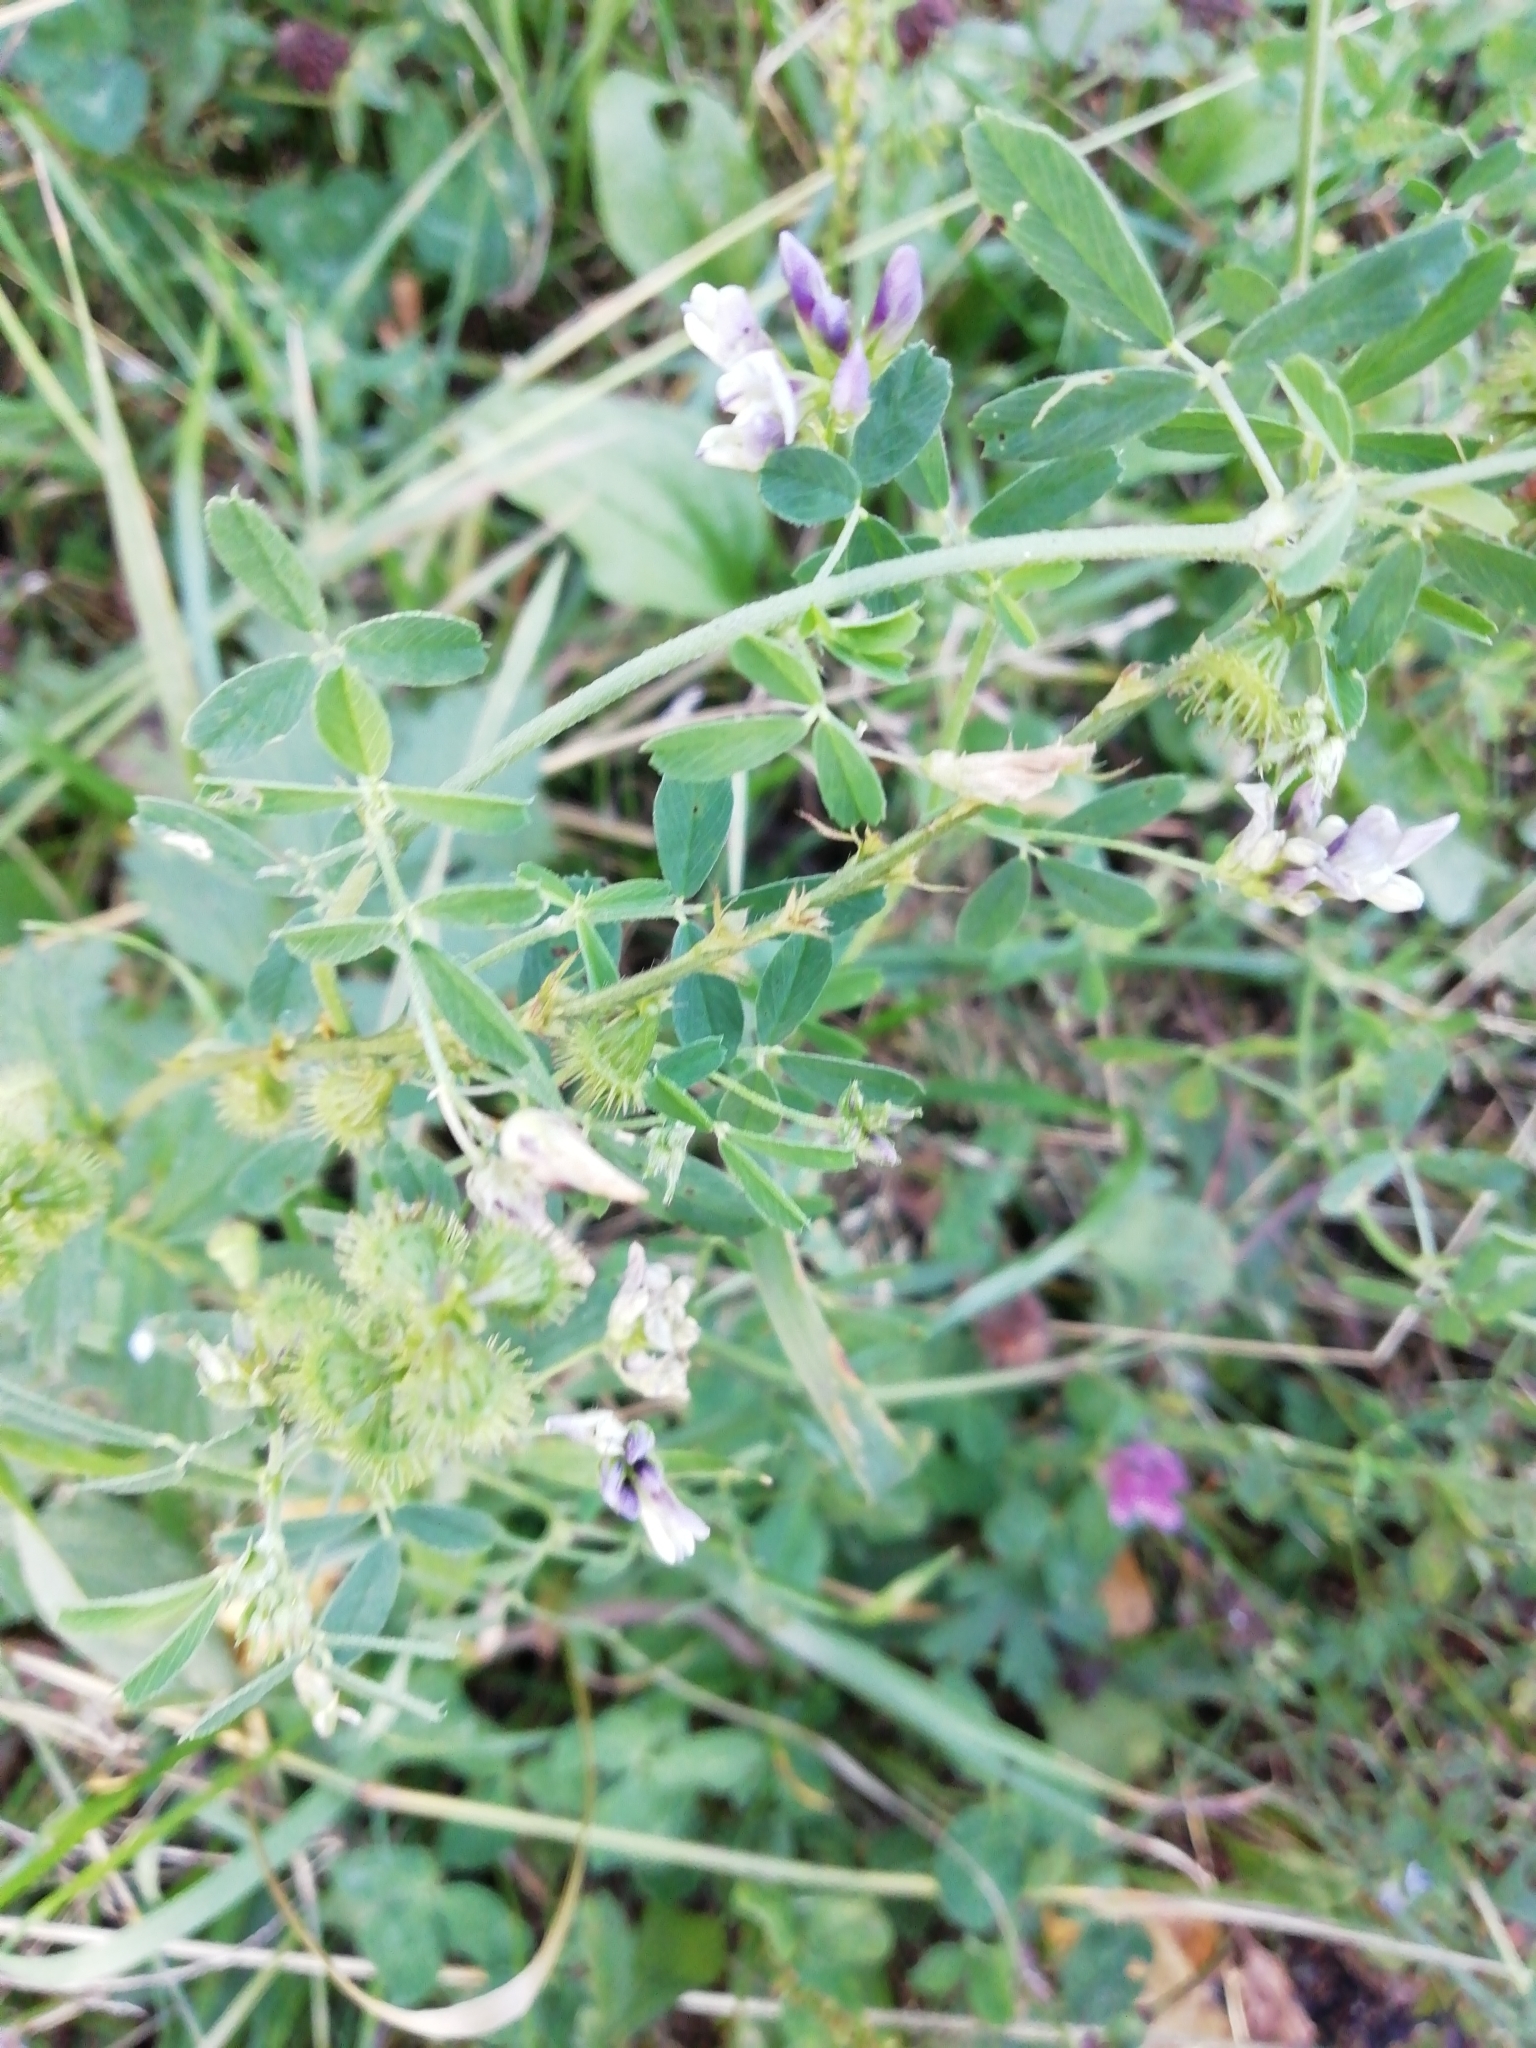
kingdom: Plantae
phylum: Tracheophyta
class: Magnoliopsida
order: Fabales
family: Fabaceae
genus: Medicago
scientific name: Medicago sativa
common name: Alfalfa
